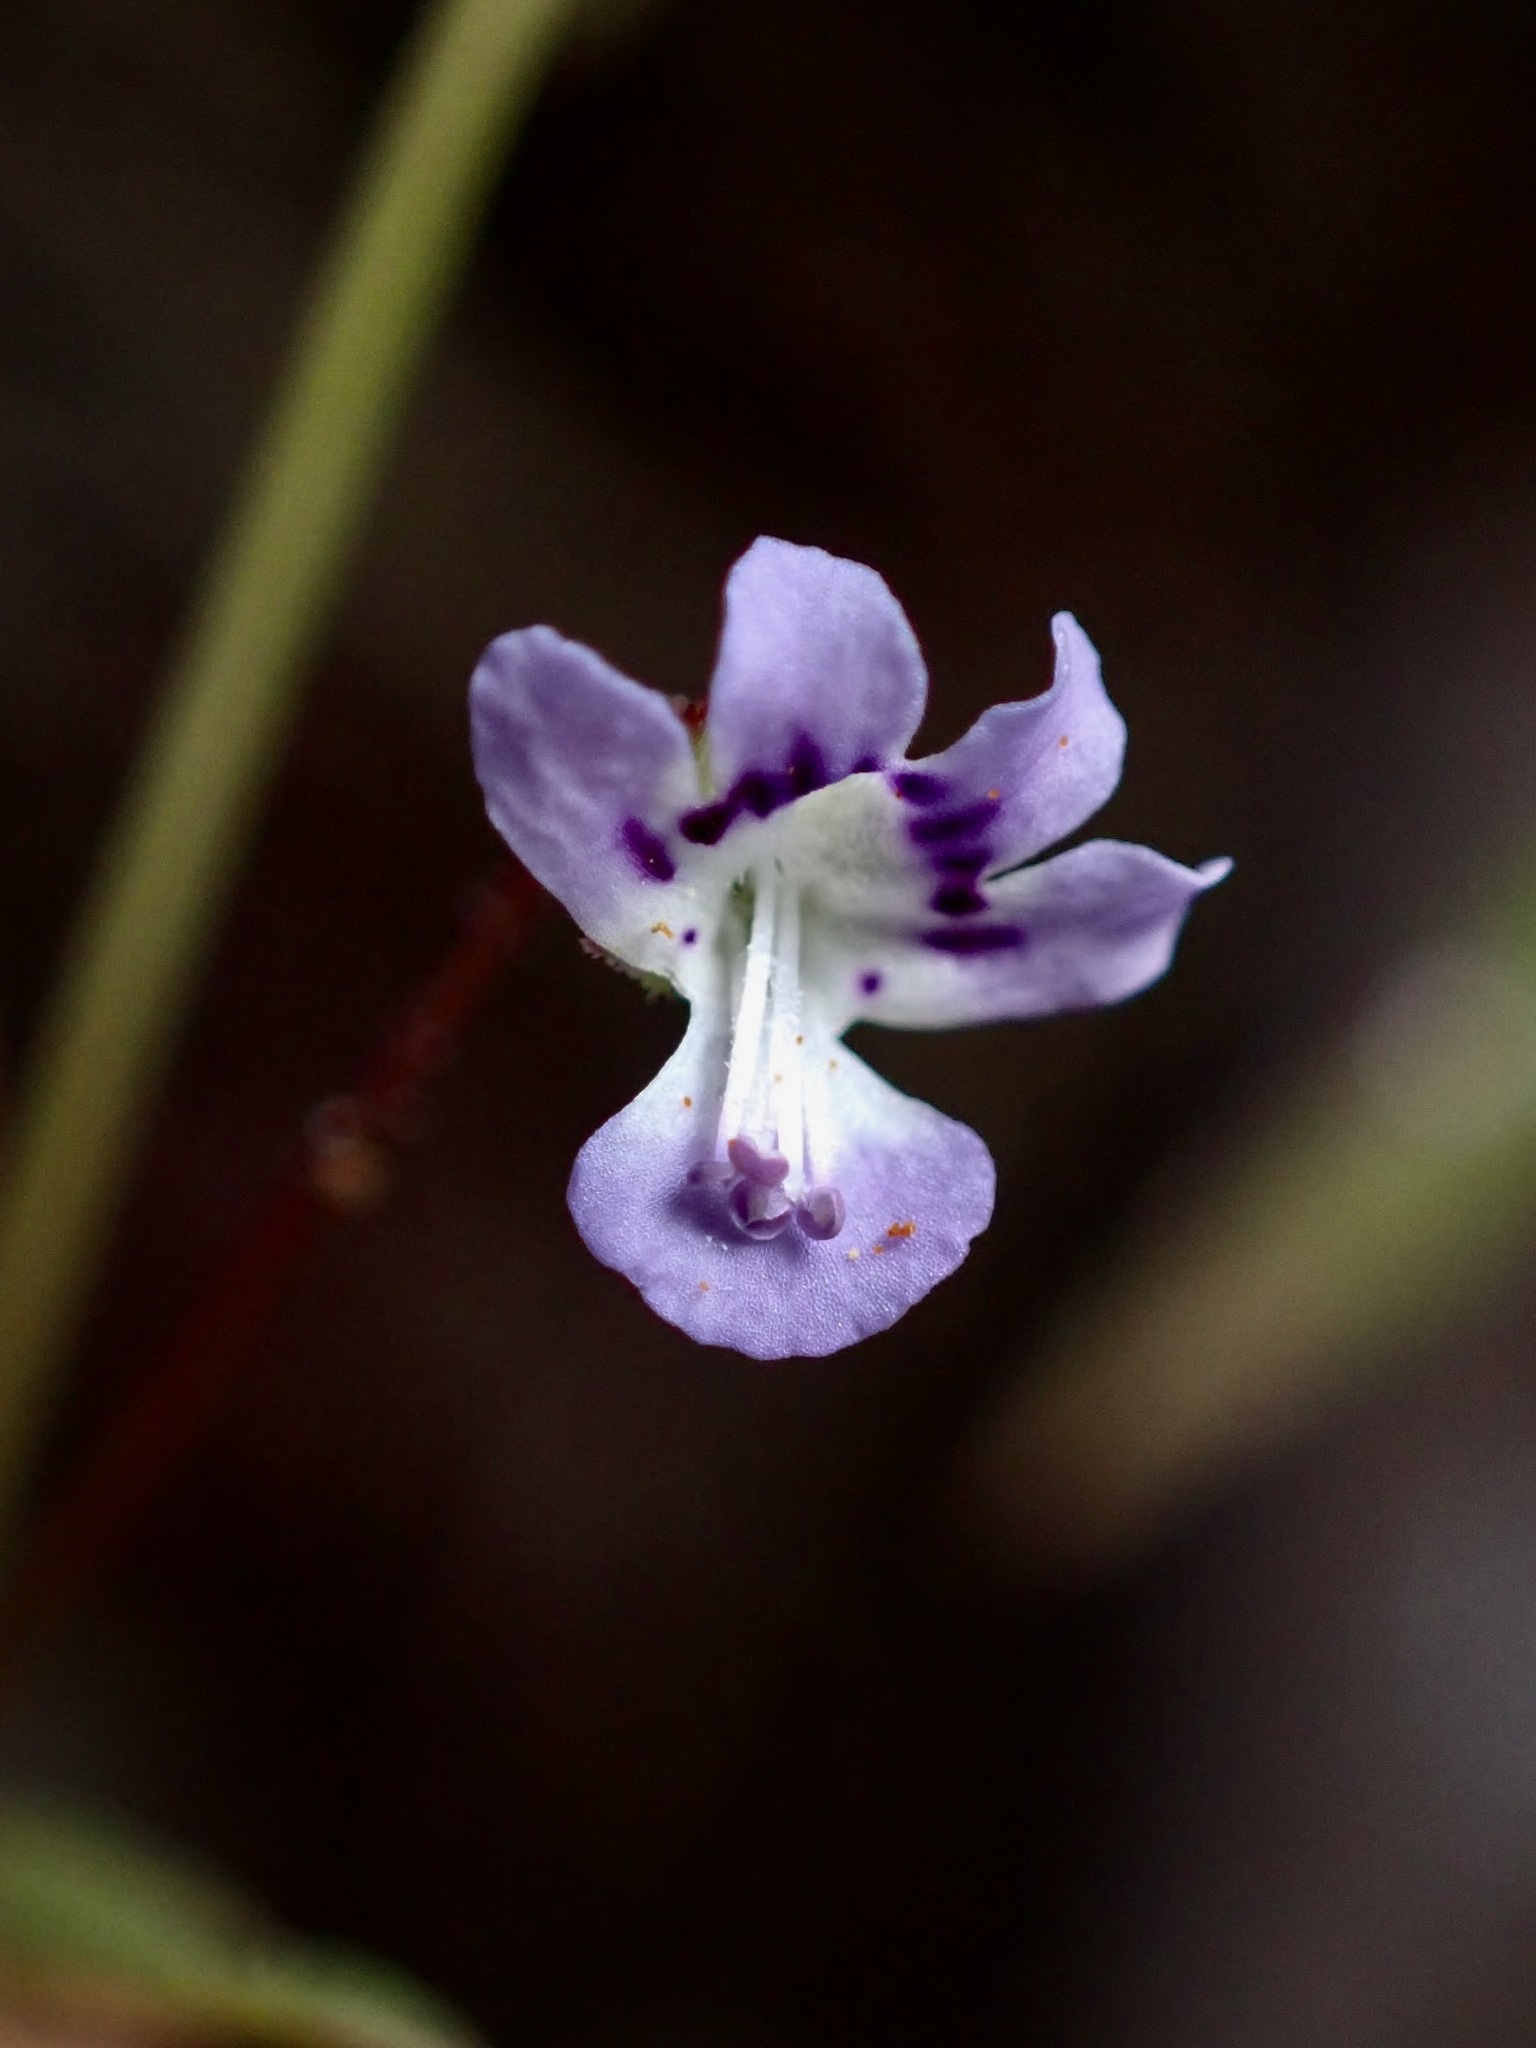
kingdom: Plantae
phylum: Tracheophyta
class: Magnoliopsida
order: Lamiales
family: Plantaginaceae
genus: Tonella
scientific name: Tonella tenella
